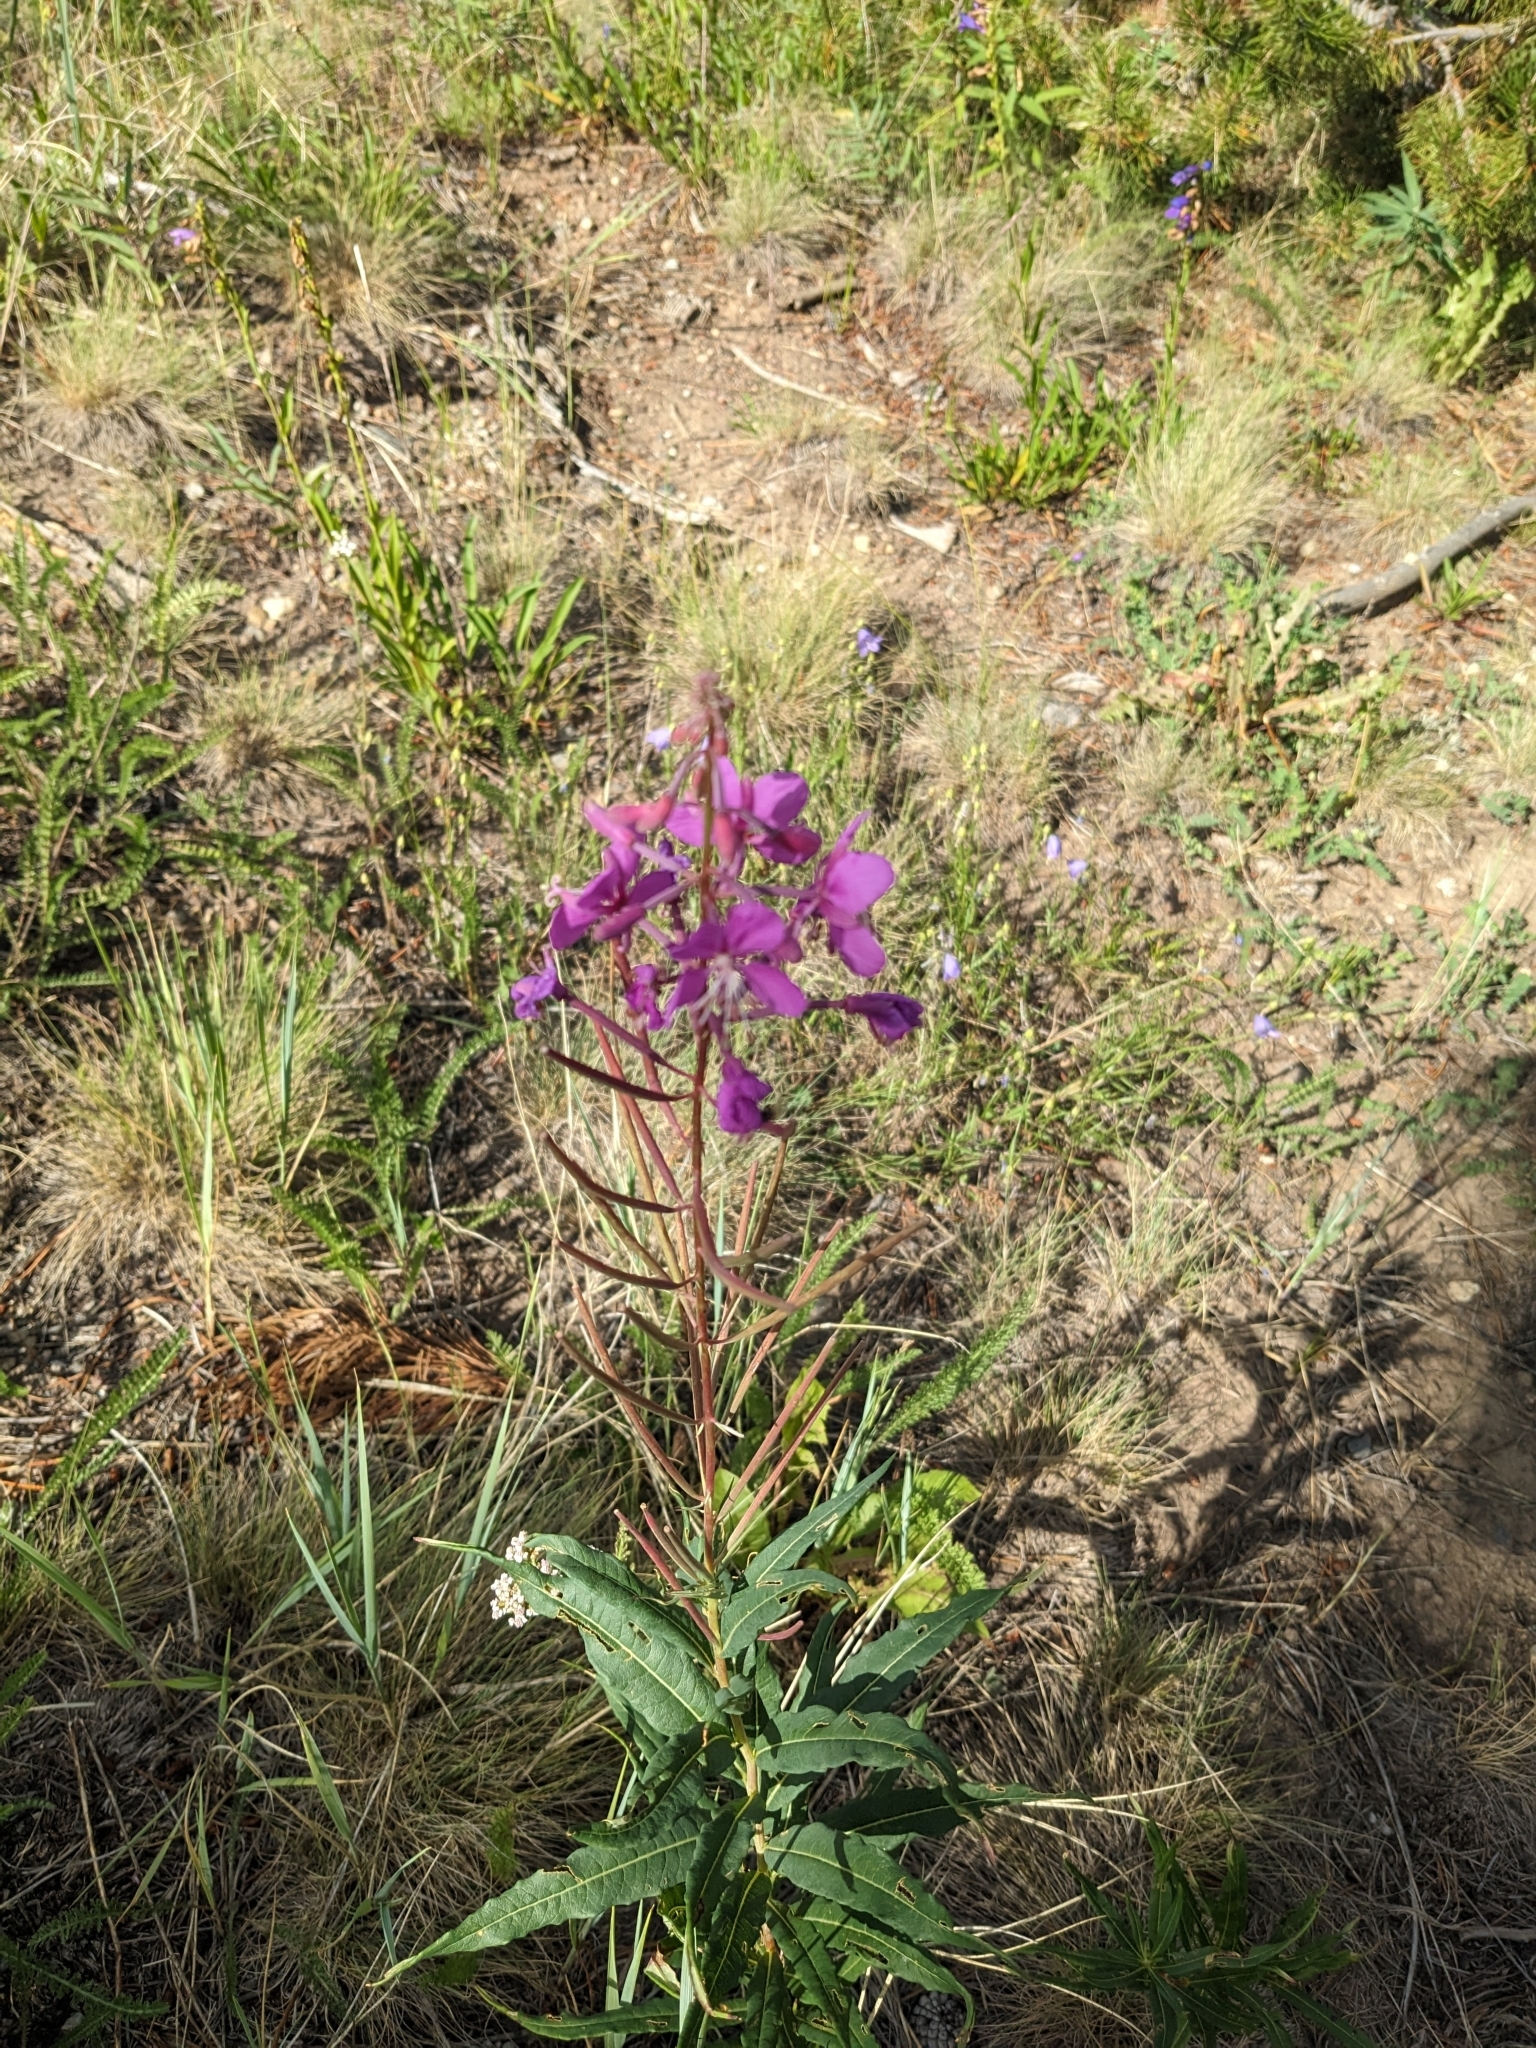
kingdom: Plantae
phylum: Tracheophyta
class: Magnoliopsida
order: Myrtales
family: Onagraceae
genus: Chamaenerion
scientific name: Chamaenerion angustifolium
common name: Fireweed
